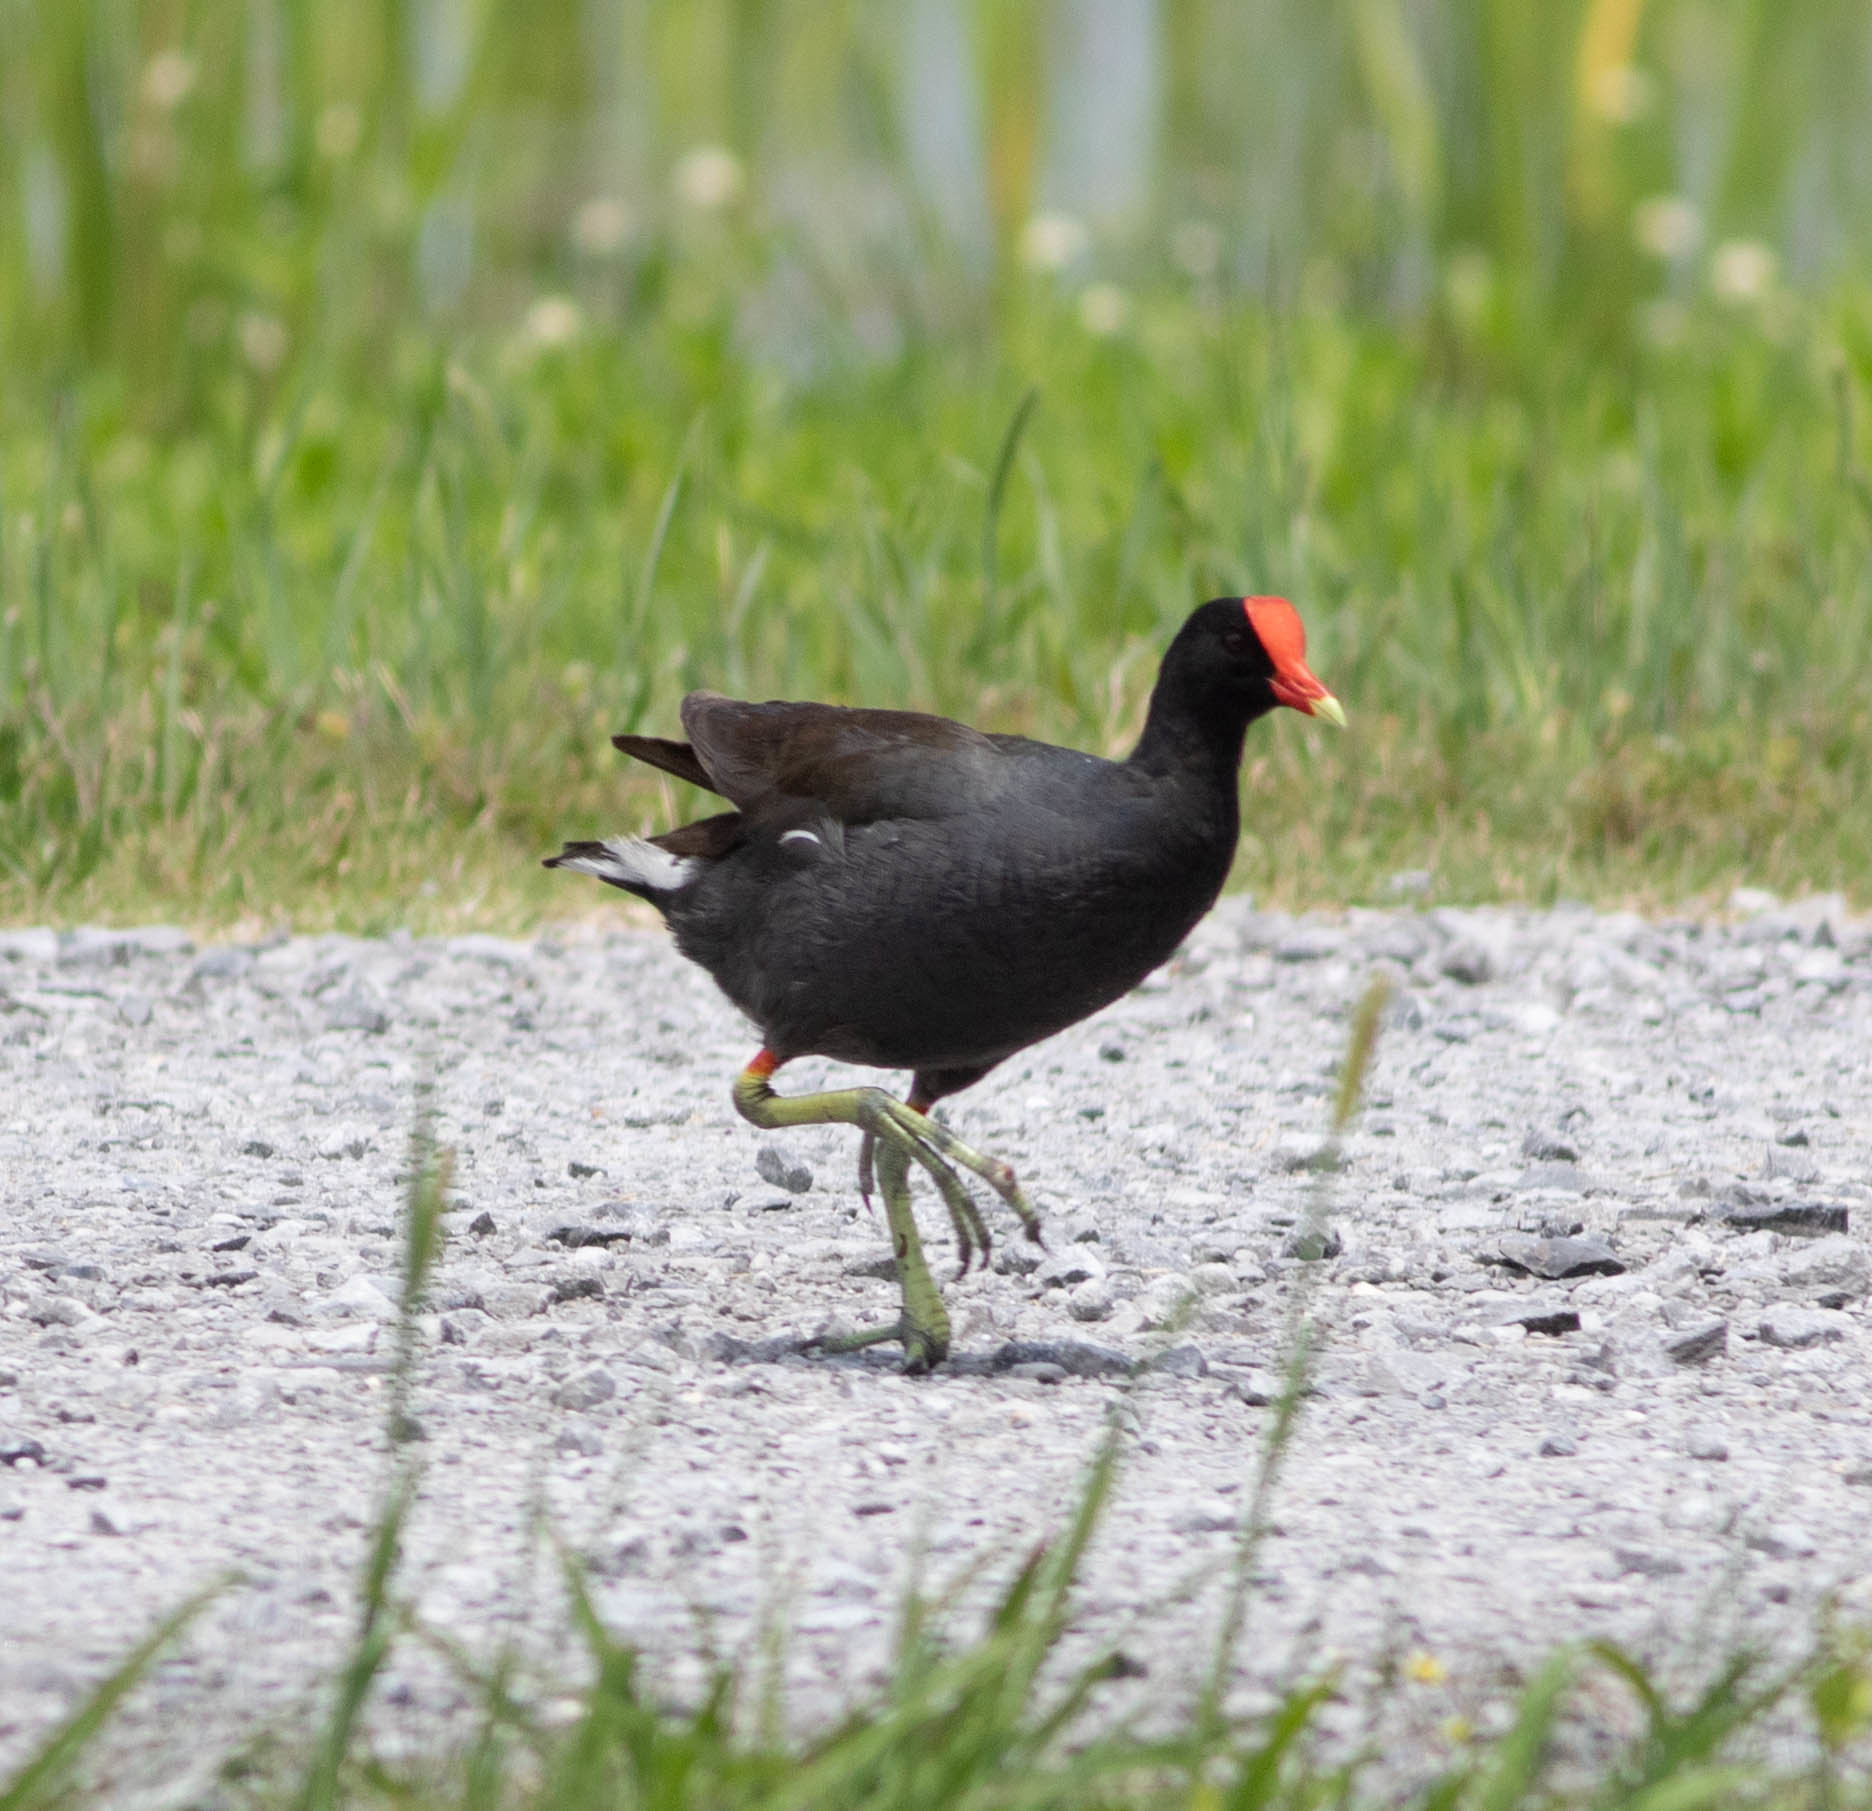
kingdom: Animalia
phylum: Chordata
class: Aves
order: Gruiformes
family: Rallidae
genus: Gallinula
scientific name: Gallinula chloropus
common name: Common moorhen
